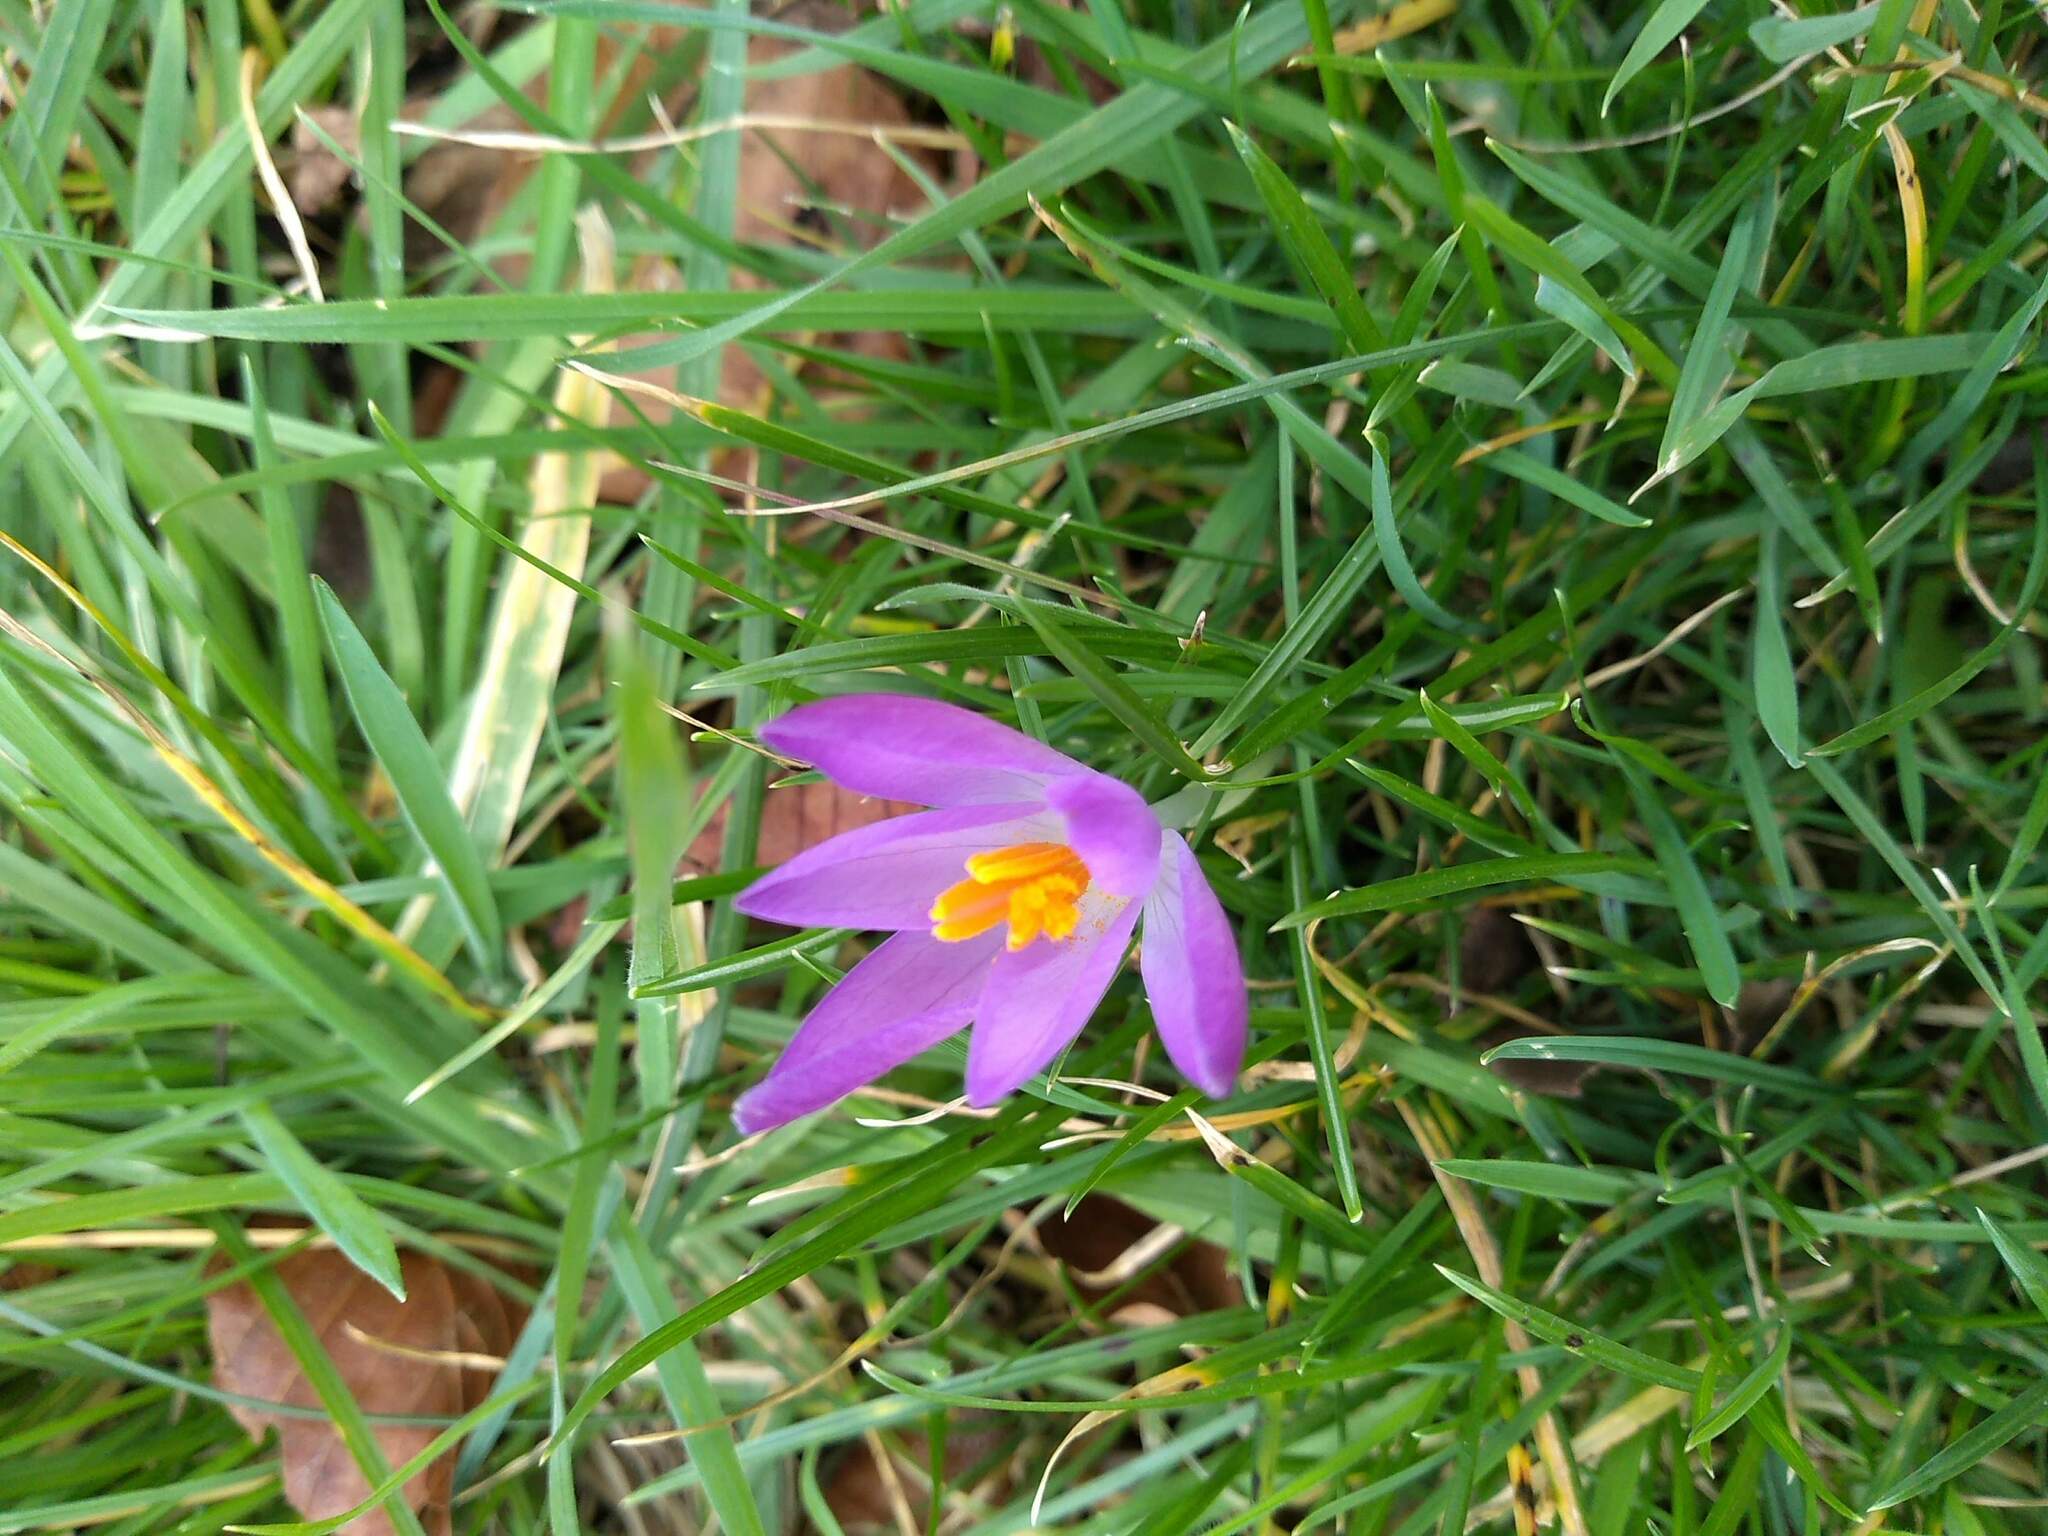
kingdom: Plantae
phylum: Tracheophyta
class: Liliopsida
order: Asparagales
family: Iridaceae
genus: Crocus
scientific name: Crocus tommasinianus
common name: Early crocus
